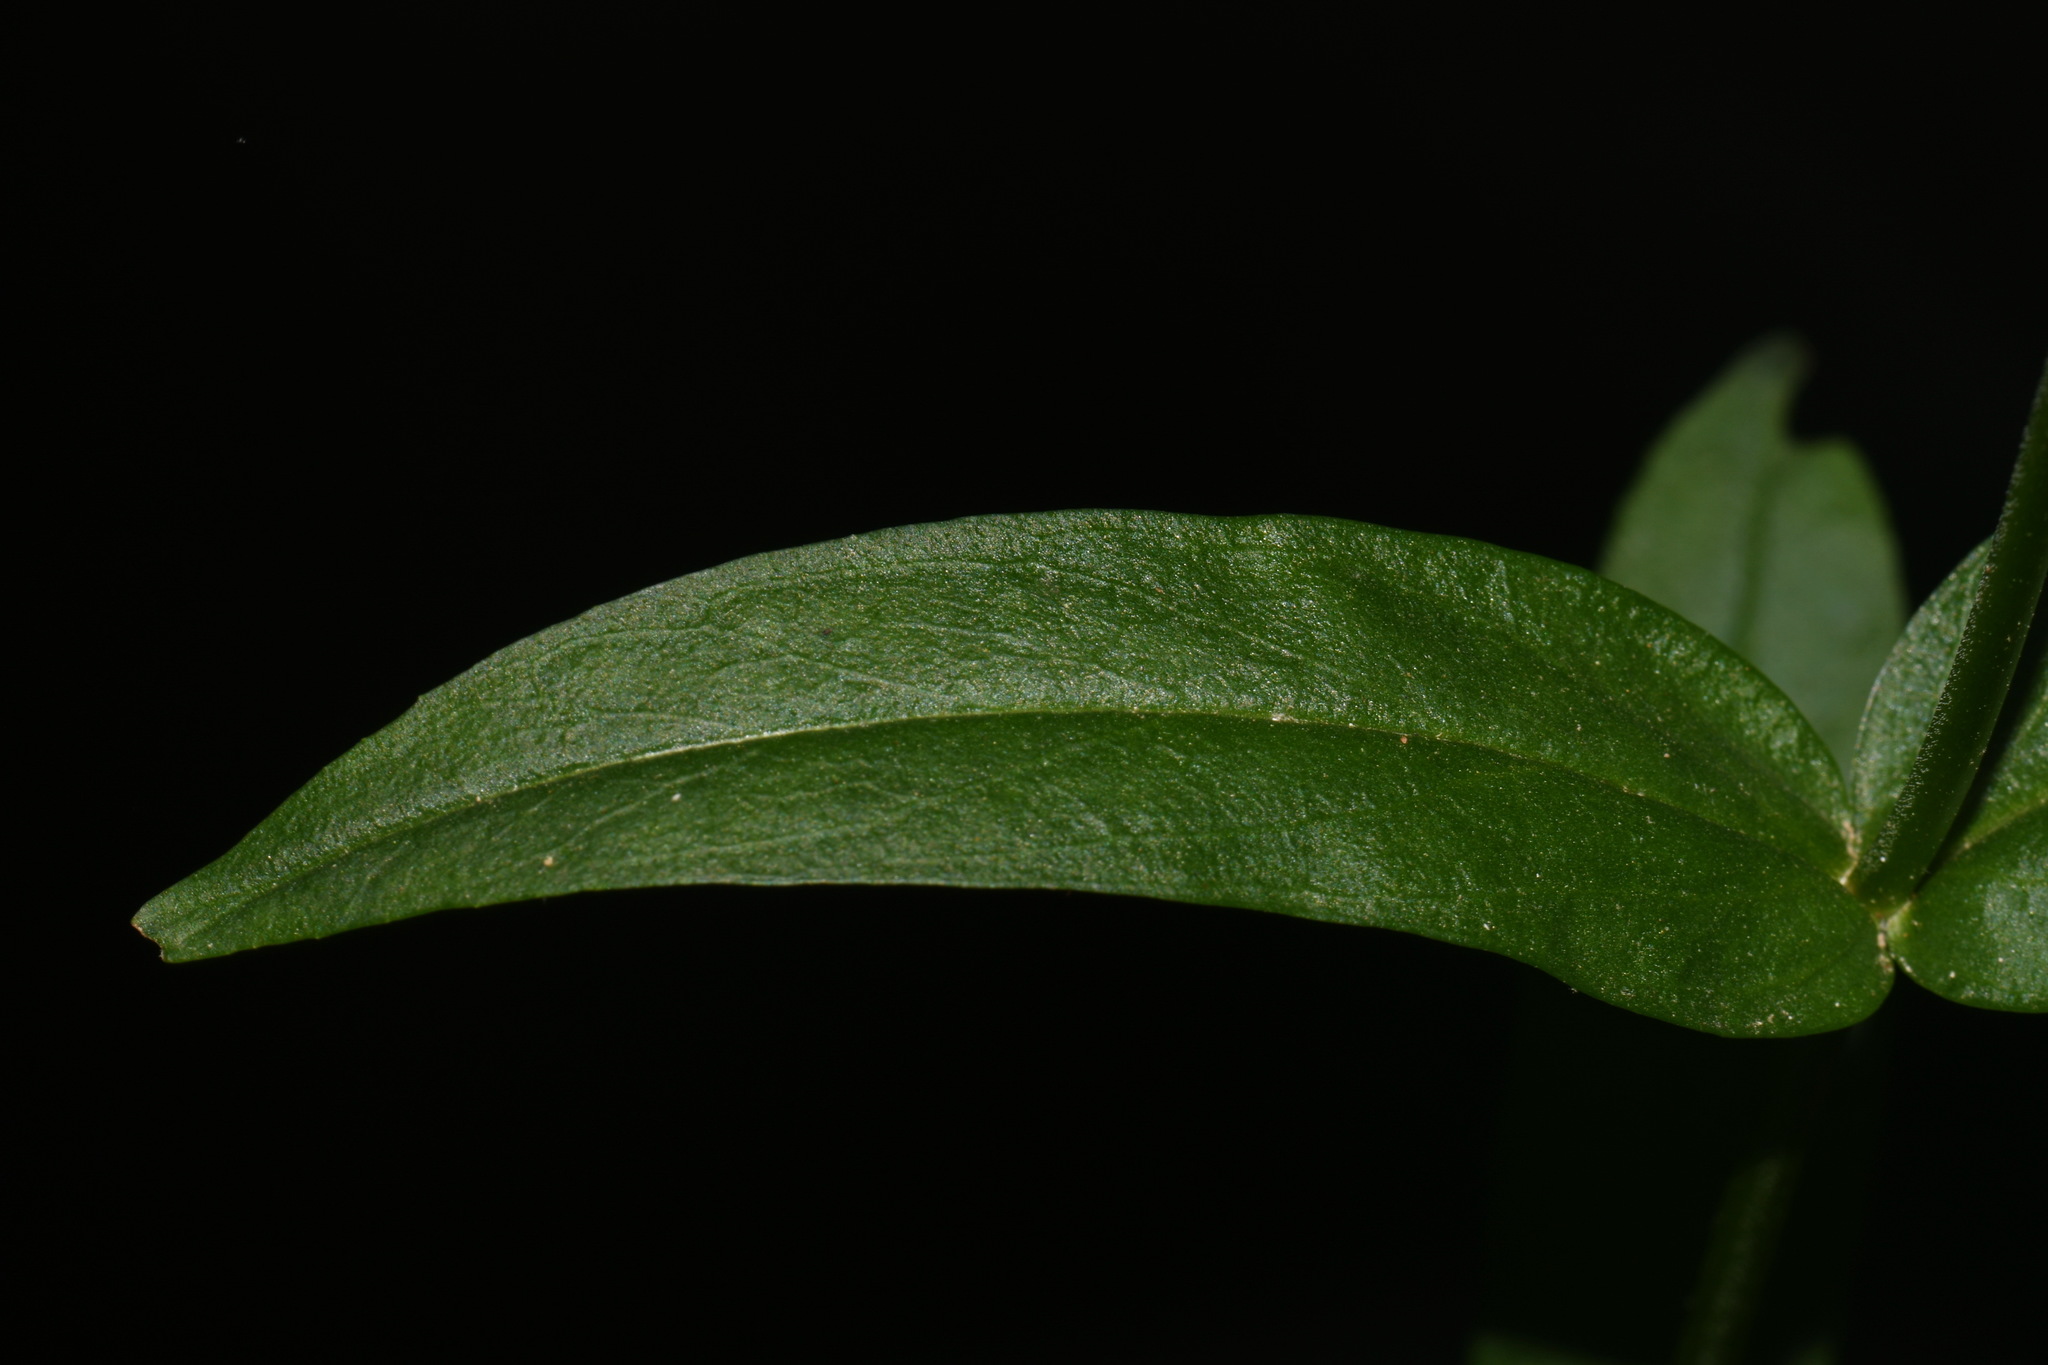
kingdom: Plantae
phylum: Tracheophyta
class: Magnoliopsida
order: Lamiales
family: Plantaginaceae
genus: Penstemon
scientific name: Penstemon digitalis
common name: Foxglove beardtongue
